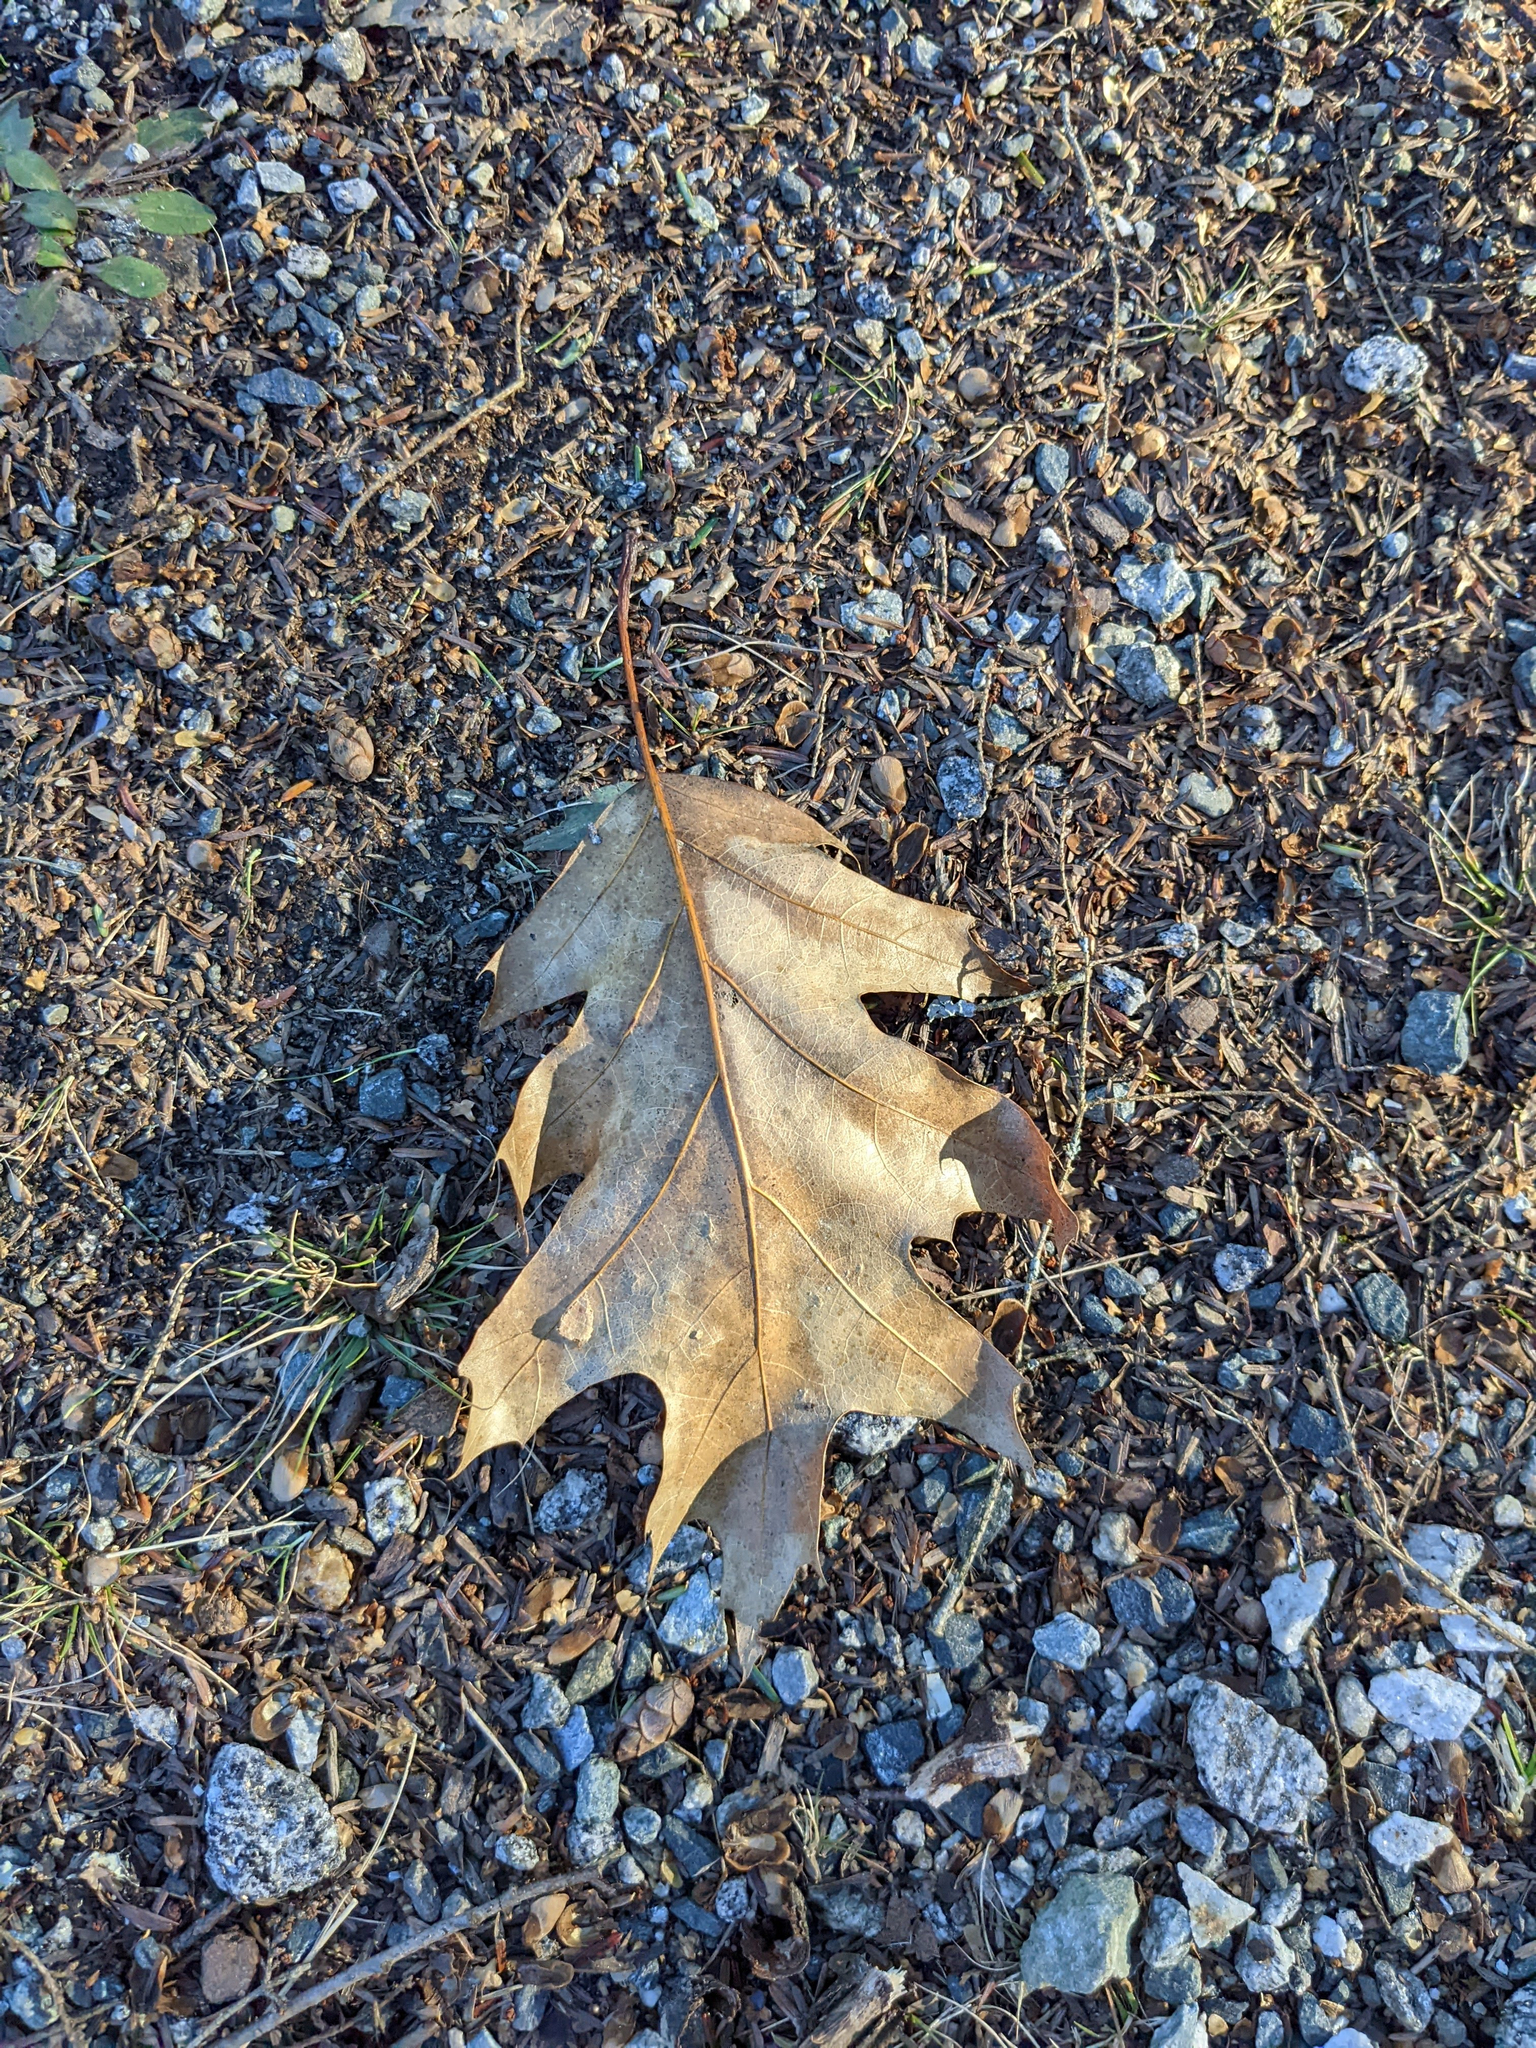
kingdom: Plantae
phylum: Tracheophyta
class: Magnoliopsida
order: Fagales
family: Fagaceae
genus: Quercus
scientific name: Quercus rubra
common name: Red oak
